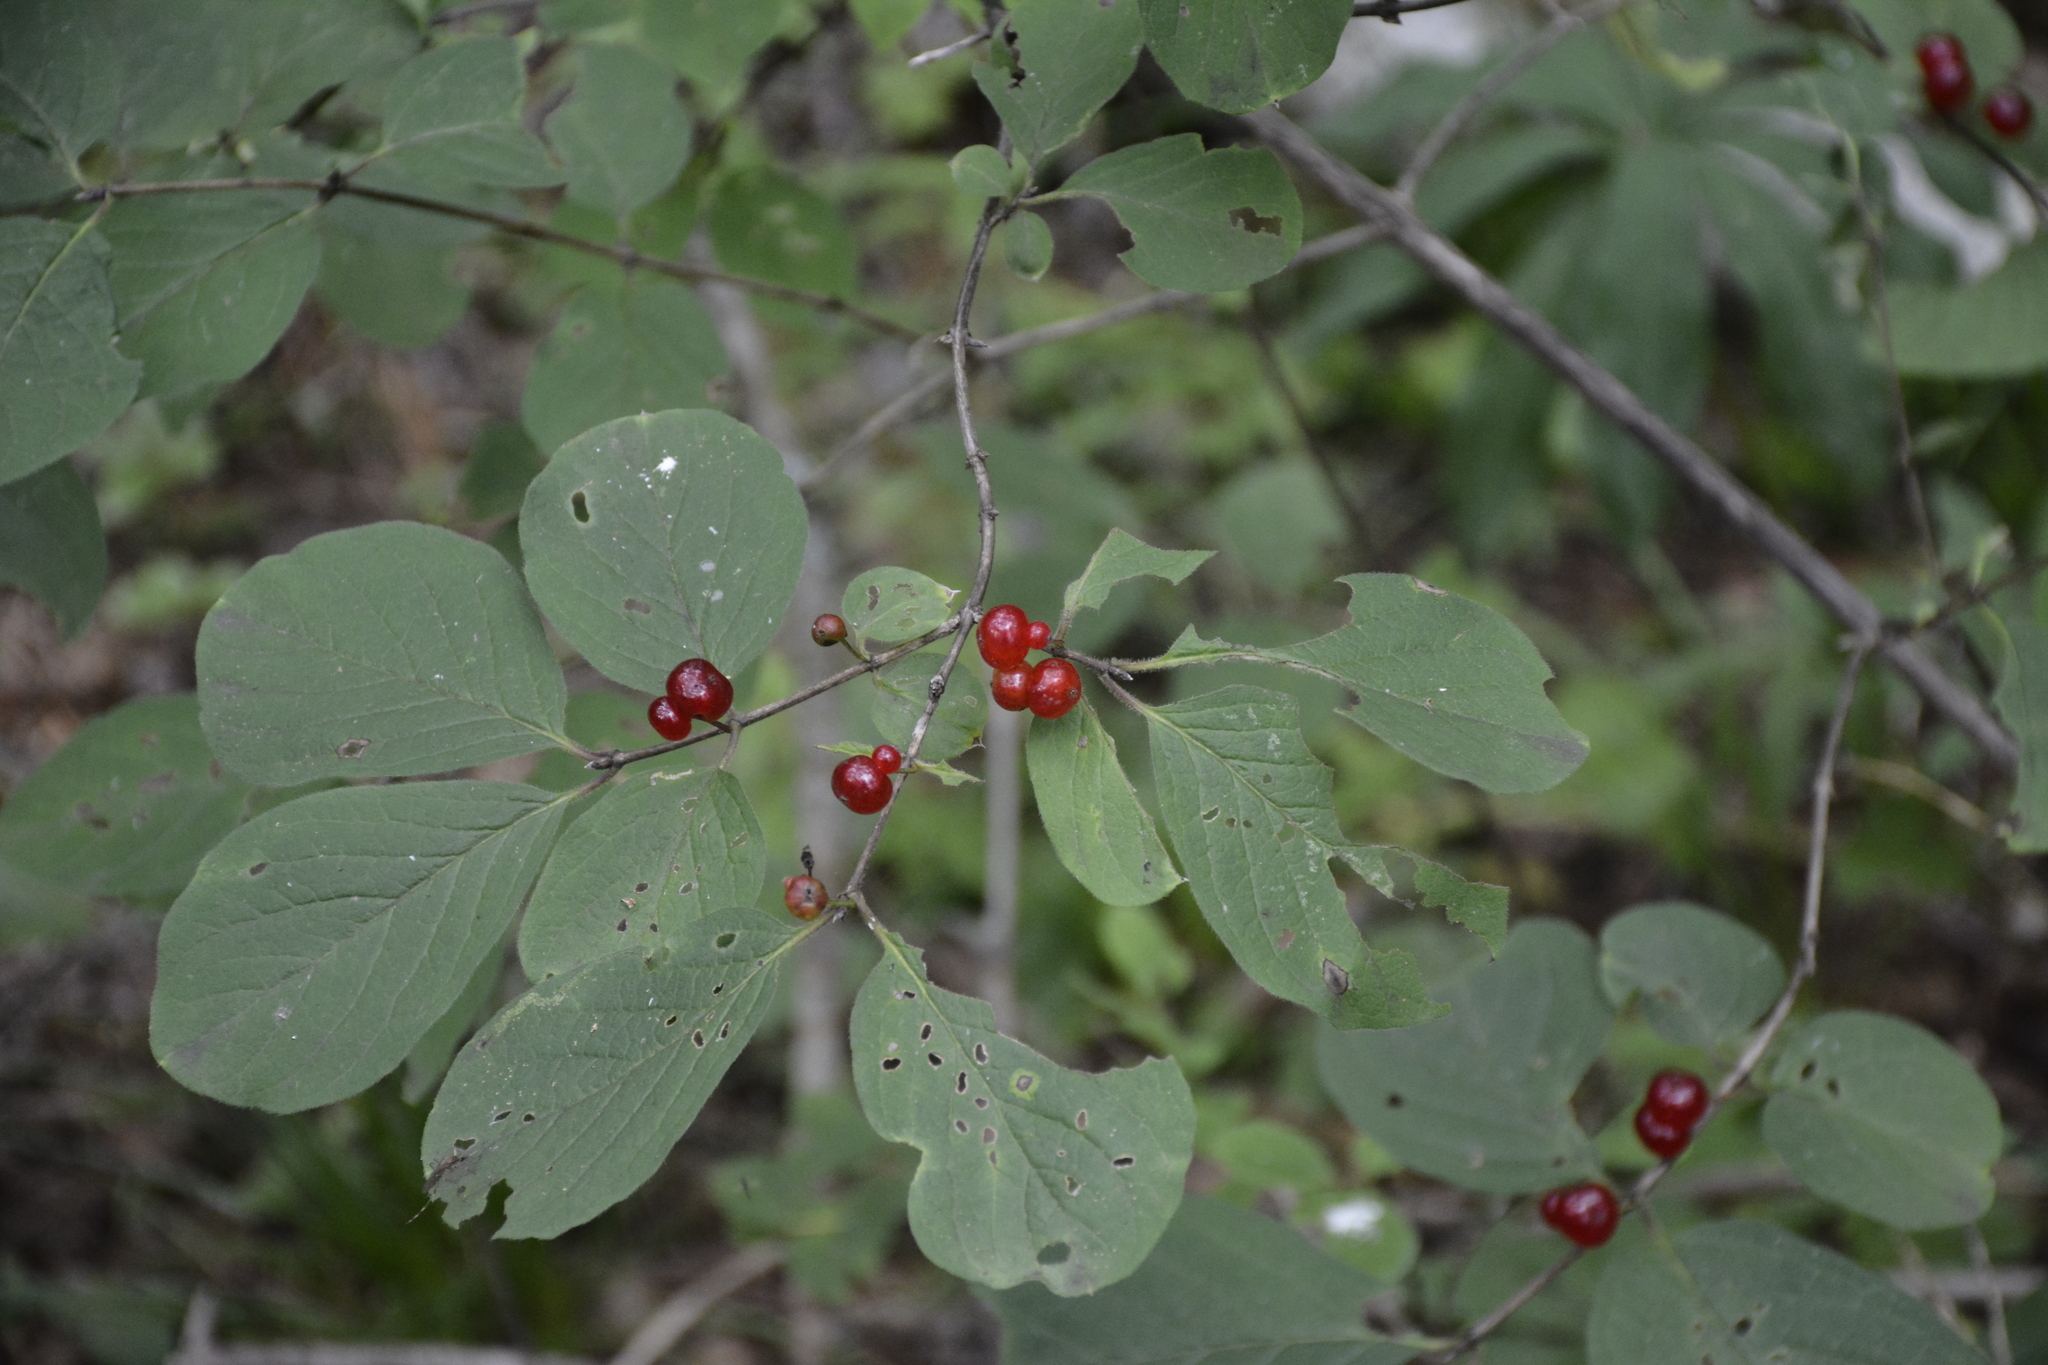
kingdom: Plantae
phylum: Tracheophyta
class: Magnoliopsida
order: Dipsacales
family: Caprifoliaceae
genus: Lonicera
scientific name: Lonicera xylosteum
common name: Fly honeysuckle
